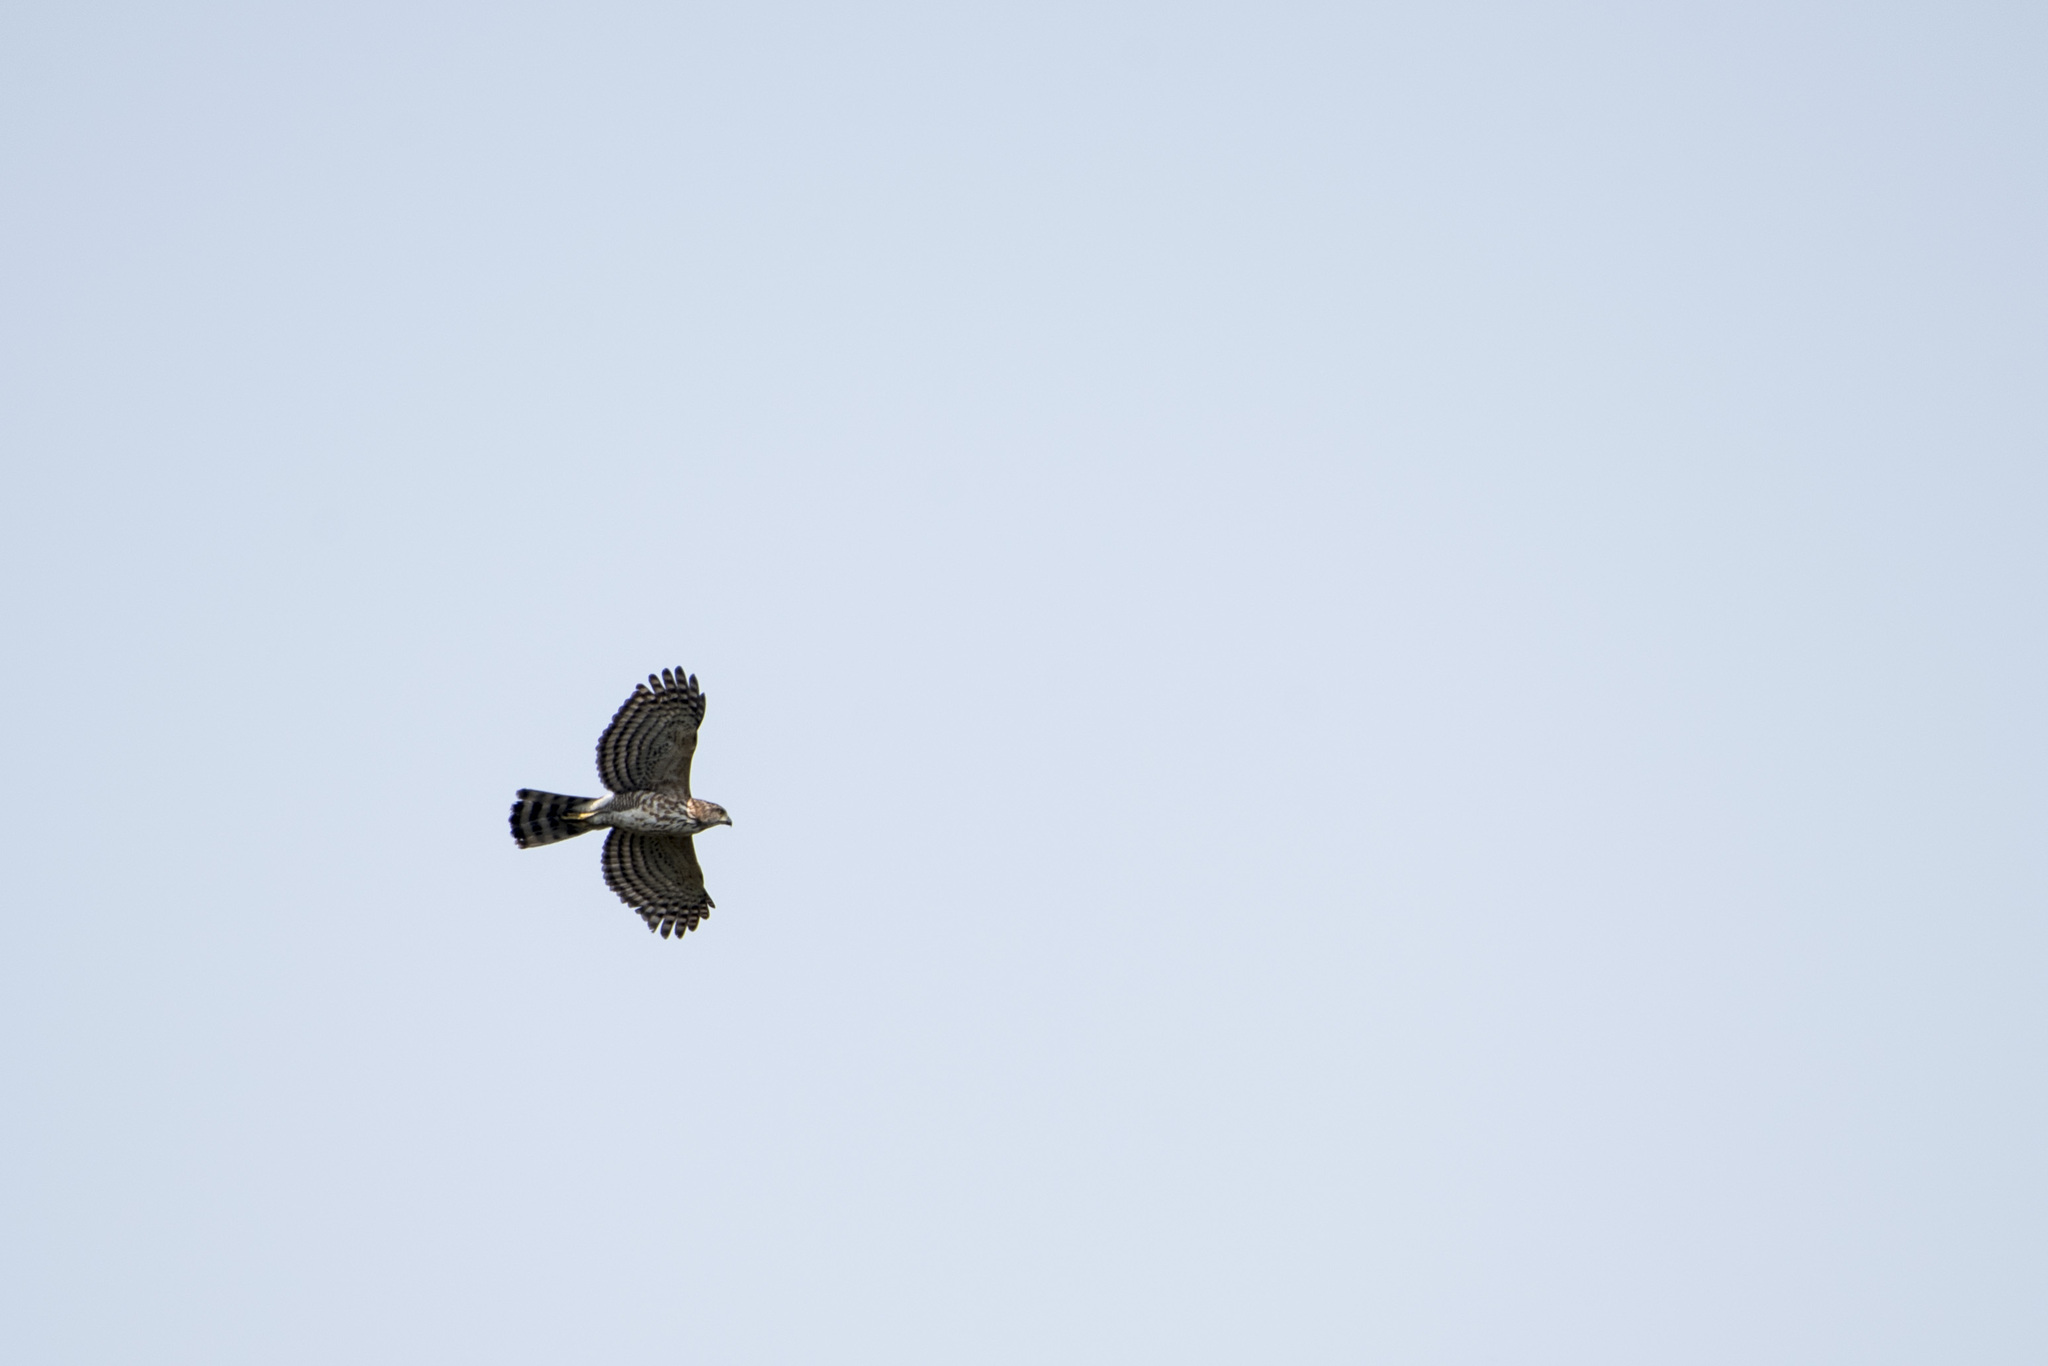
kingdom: Animalia
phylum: Chordata
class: Aves
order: Accipitriformes
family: Accipitridae
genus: Accipiter
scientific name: Accipiter trivirgatus
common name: Crested goshawk
